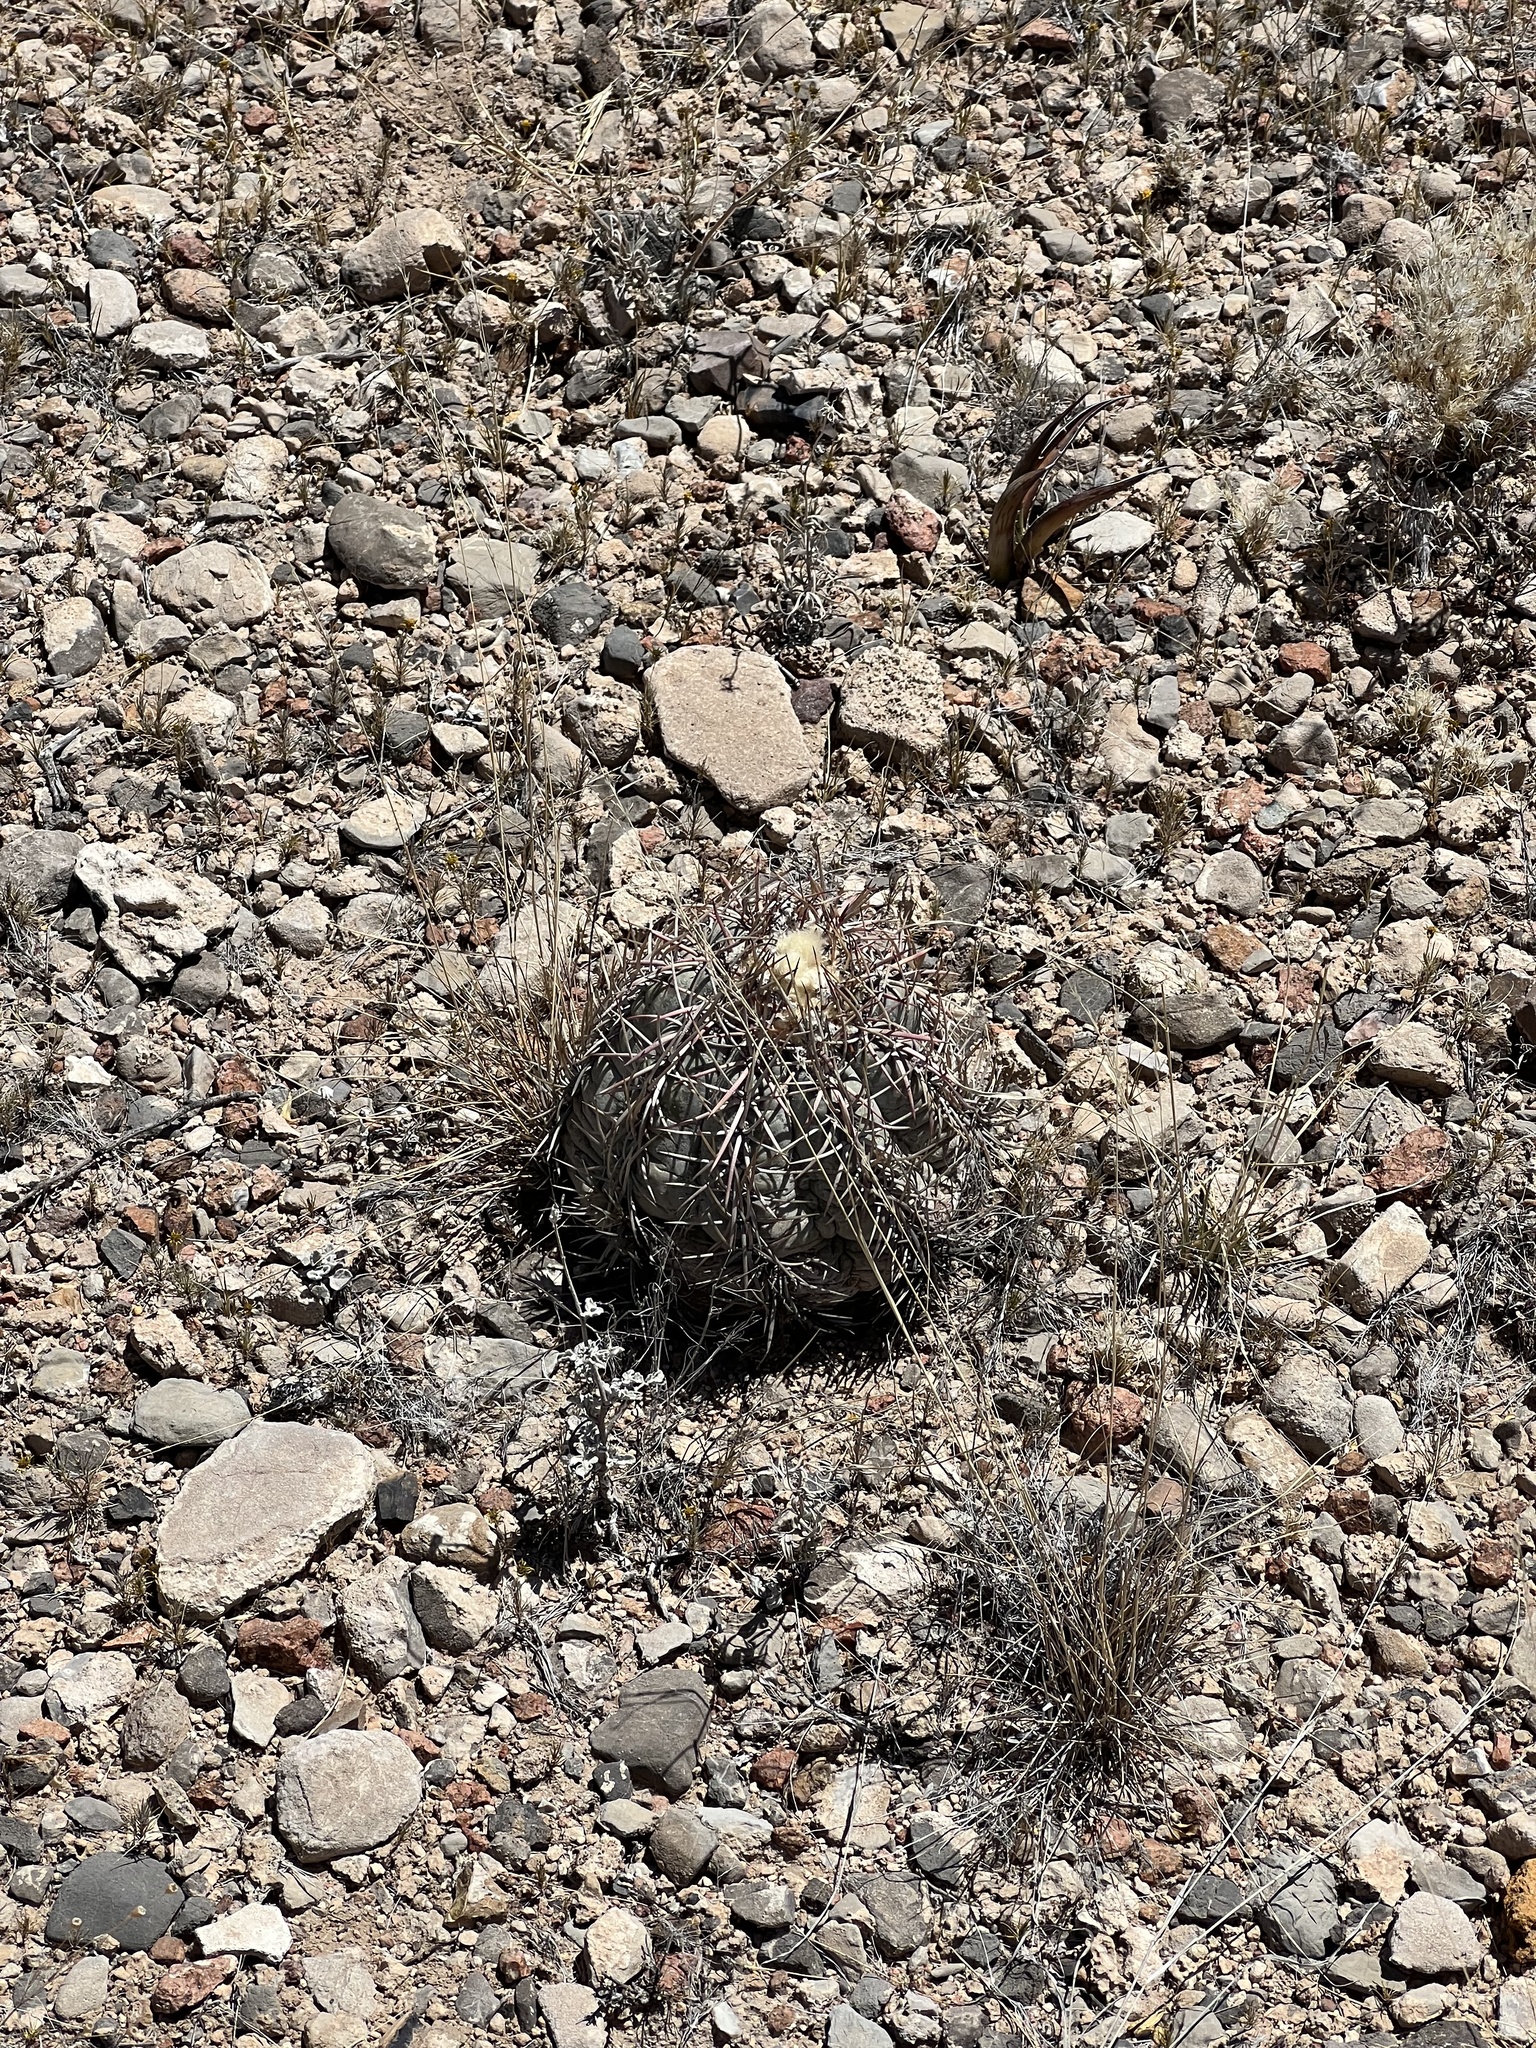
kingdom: Plantae
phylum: Tracheophyta
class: Magnoliopsida
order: Caryophyllales
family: Cactaceae
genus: Echinocactus
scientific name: Echinocactus horizonthalonius
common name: Devilshead
